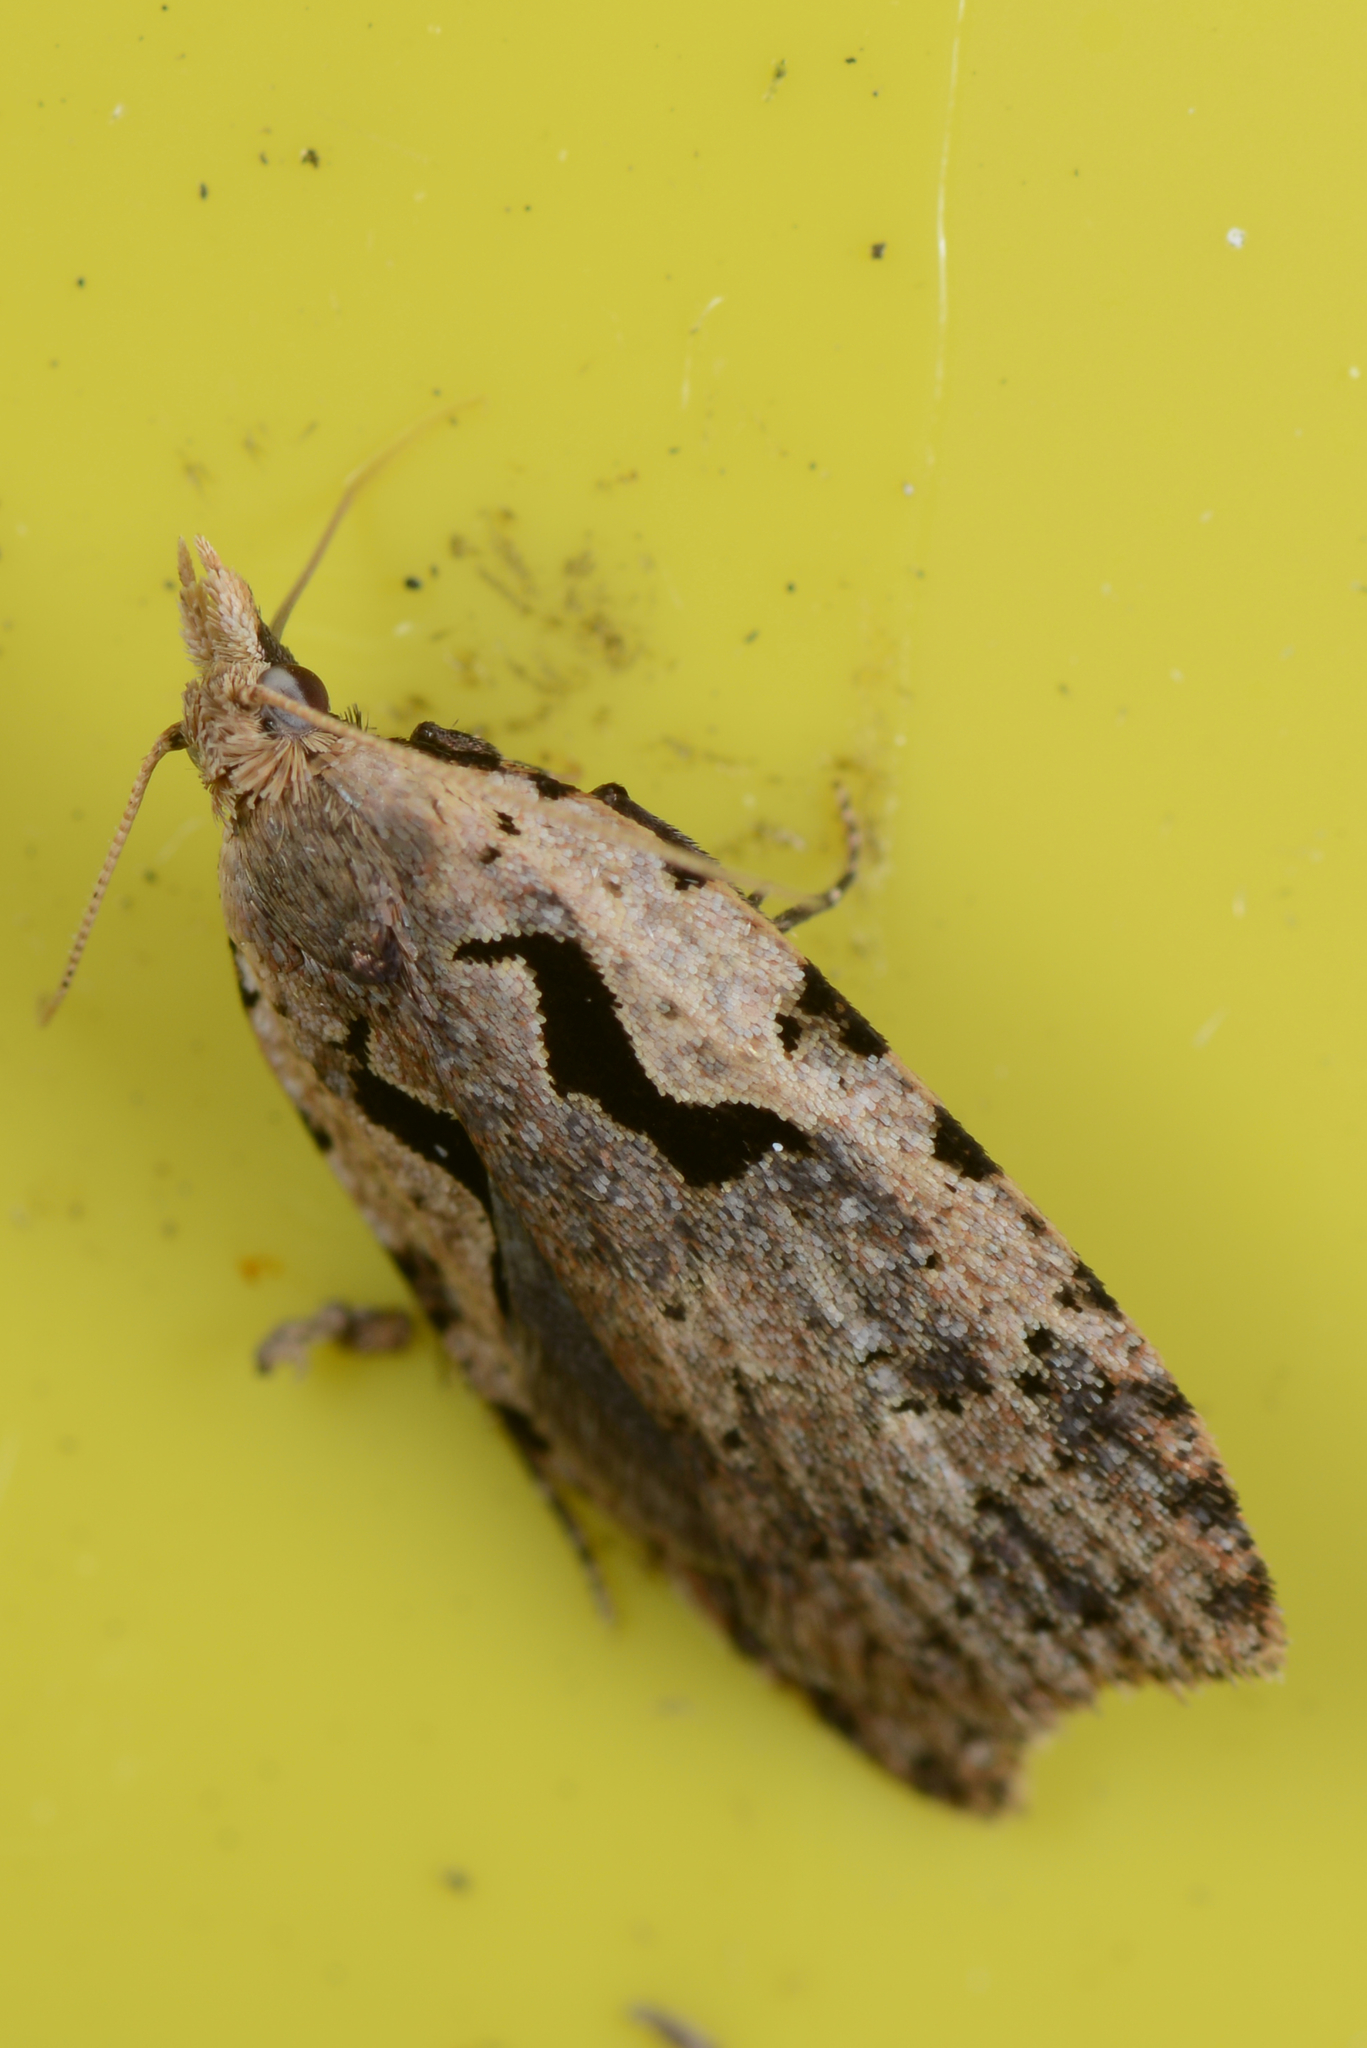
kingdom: Animalia
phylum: Arthropoda
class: Insecta
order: Lepidoptera
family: Tortricidae
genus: Cnephasia
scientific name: Cnephasia jactatana
